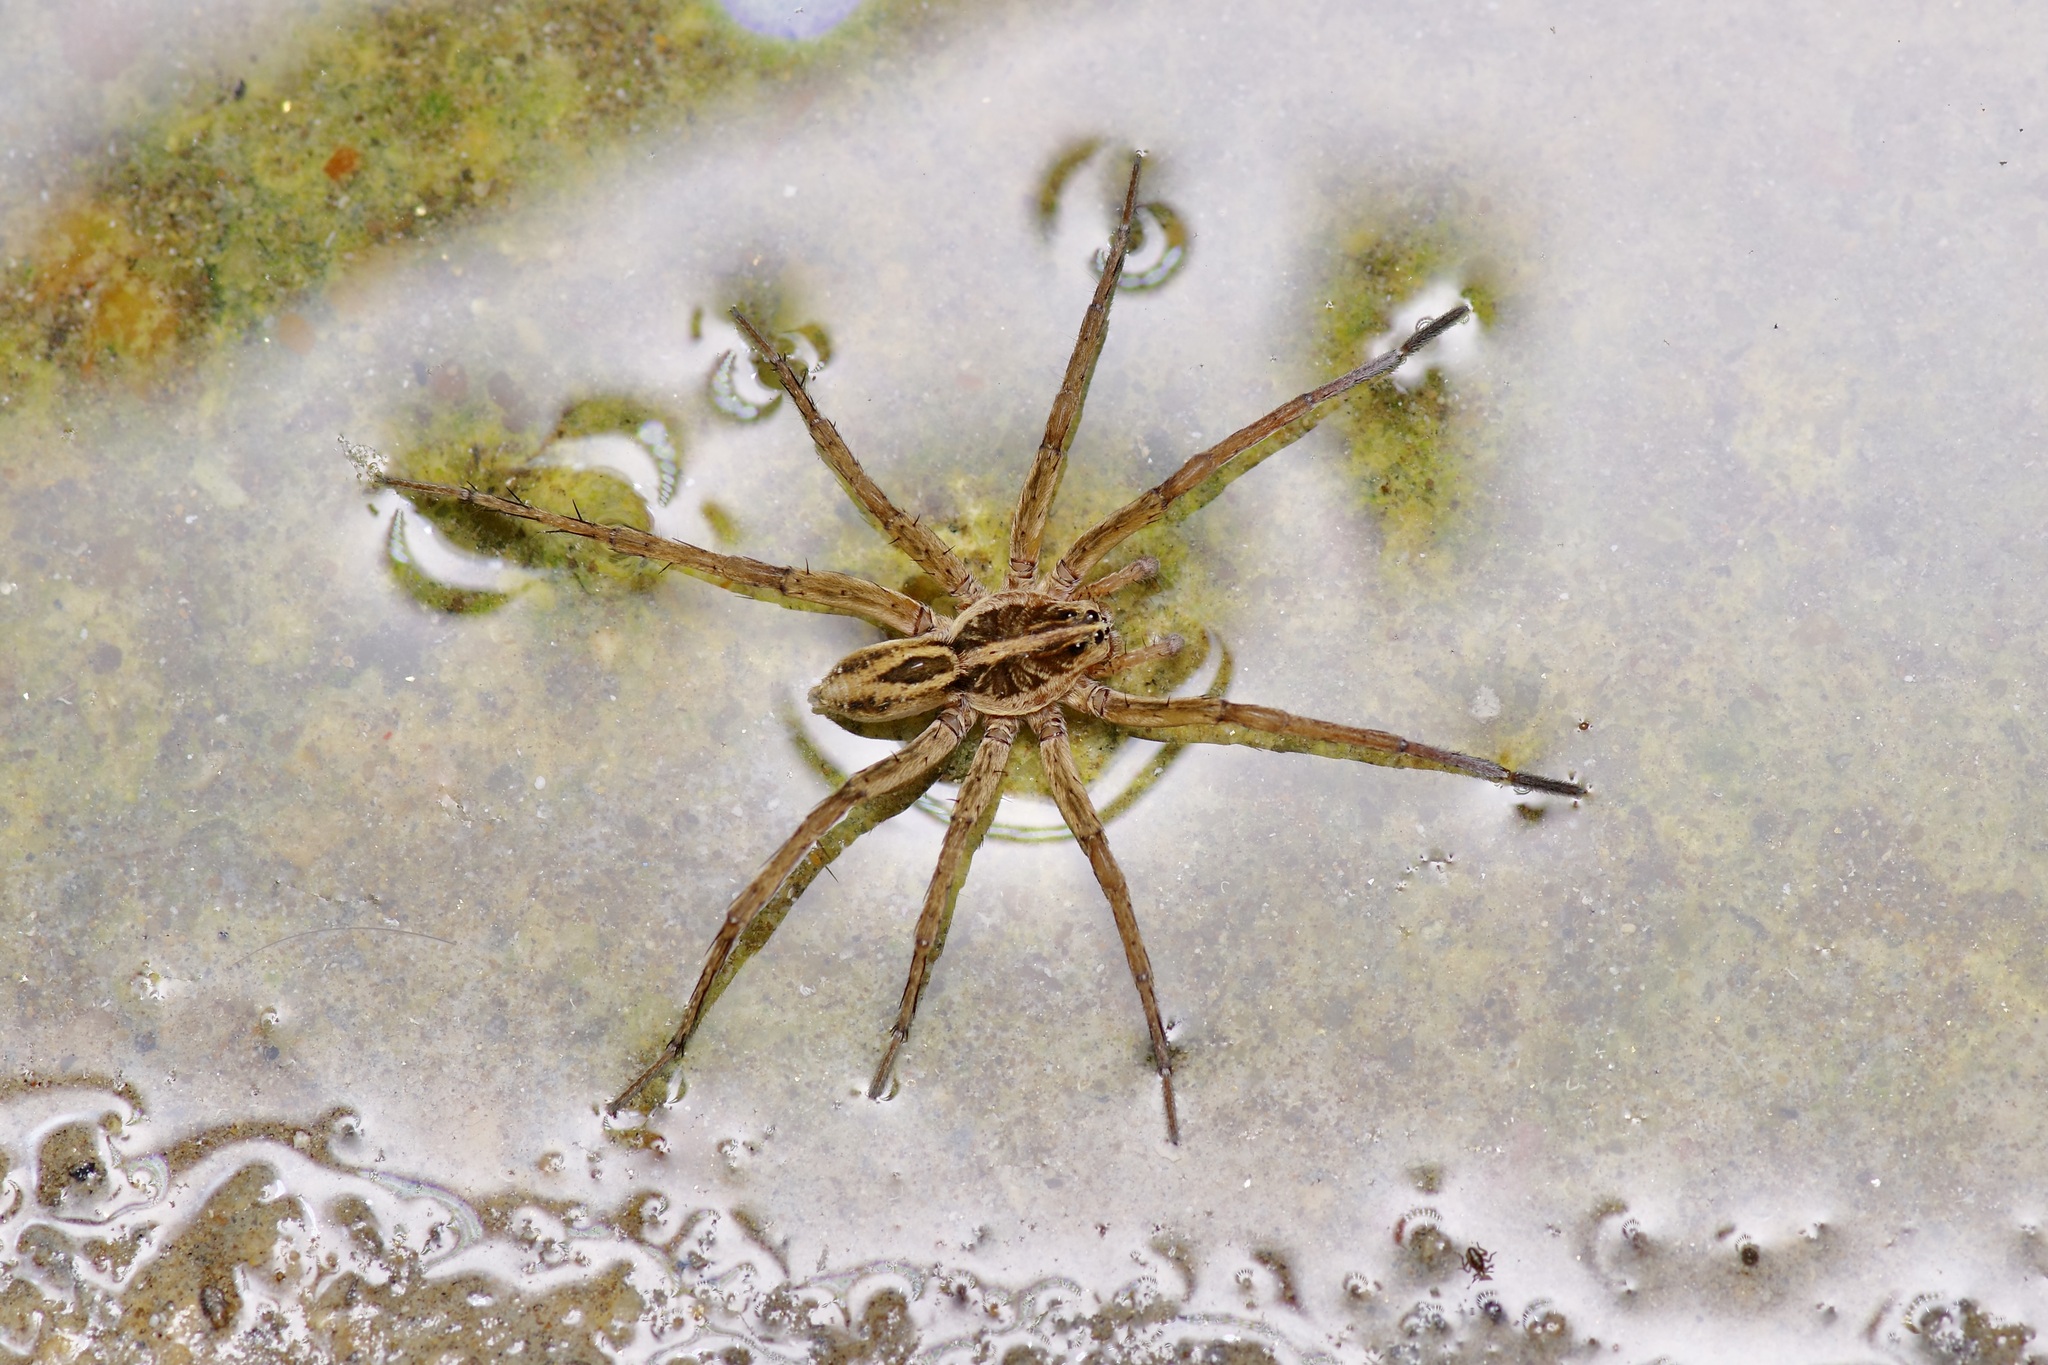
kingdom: Animalia
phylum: Arthropoda
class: Arachnida
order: Araneae
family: Lycosidae
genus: Tigrosa
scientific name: Tigrosa annexa
